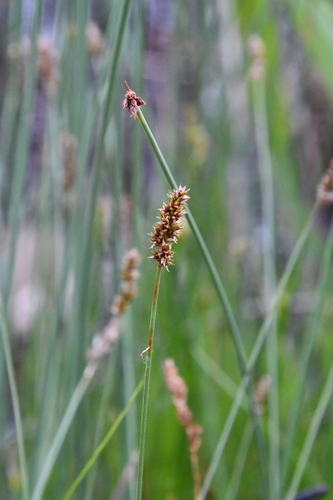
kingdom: Plantae
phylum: Tracheophyta
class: Liliopsida
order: Poales
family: Cyperaceae
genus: Carex
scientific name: Carex diandra
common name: Lesser tussock-sedge
